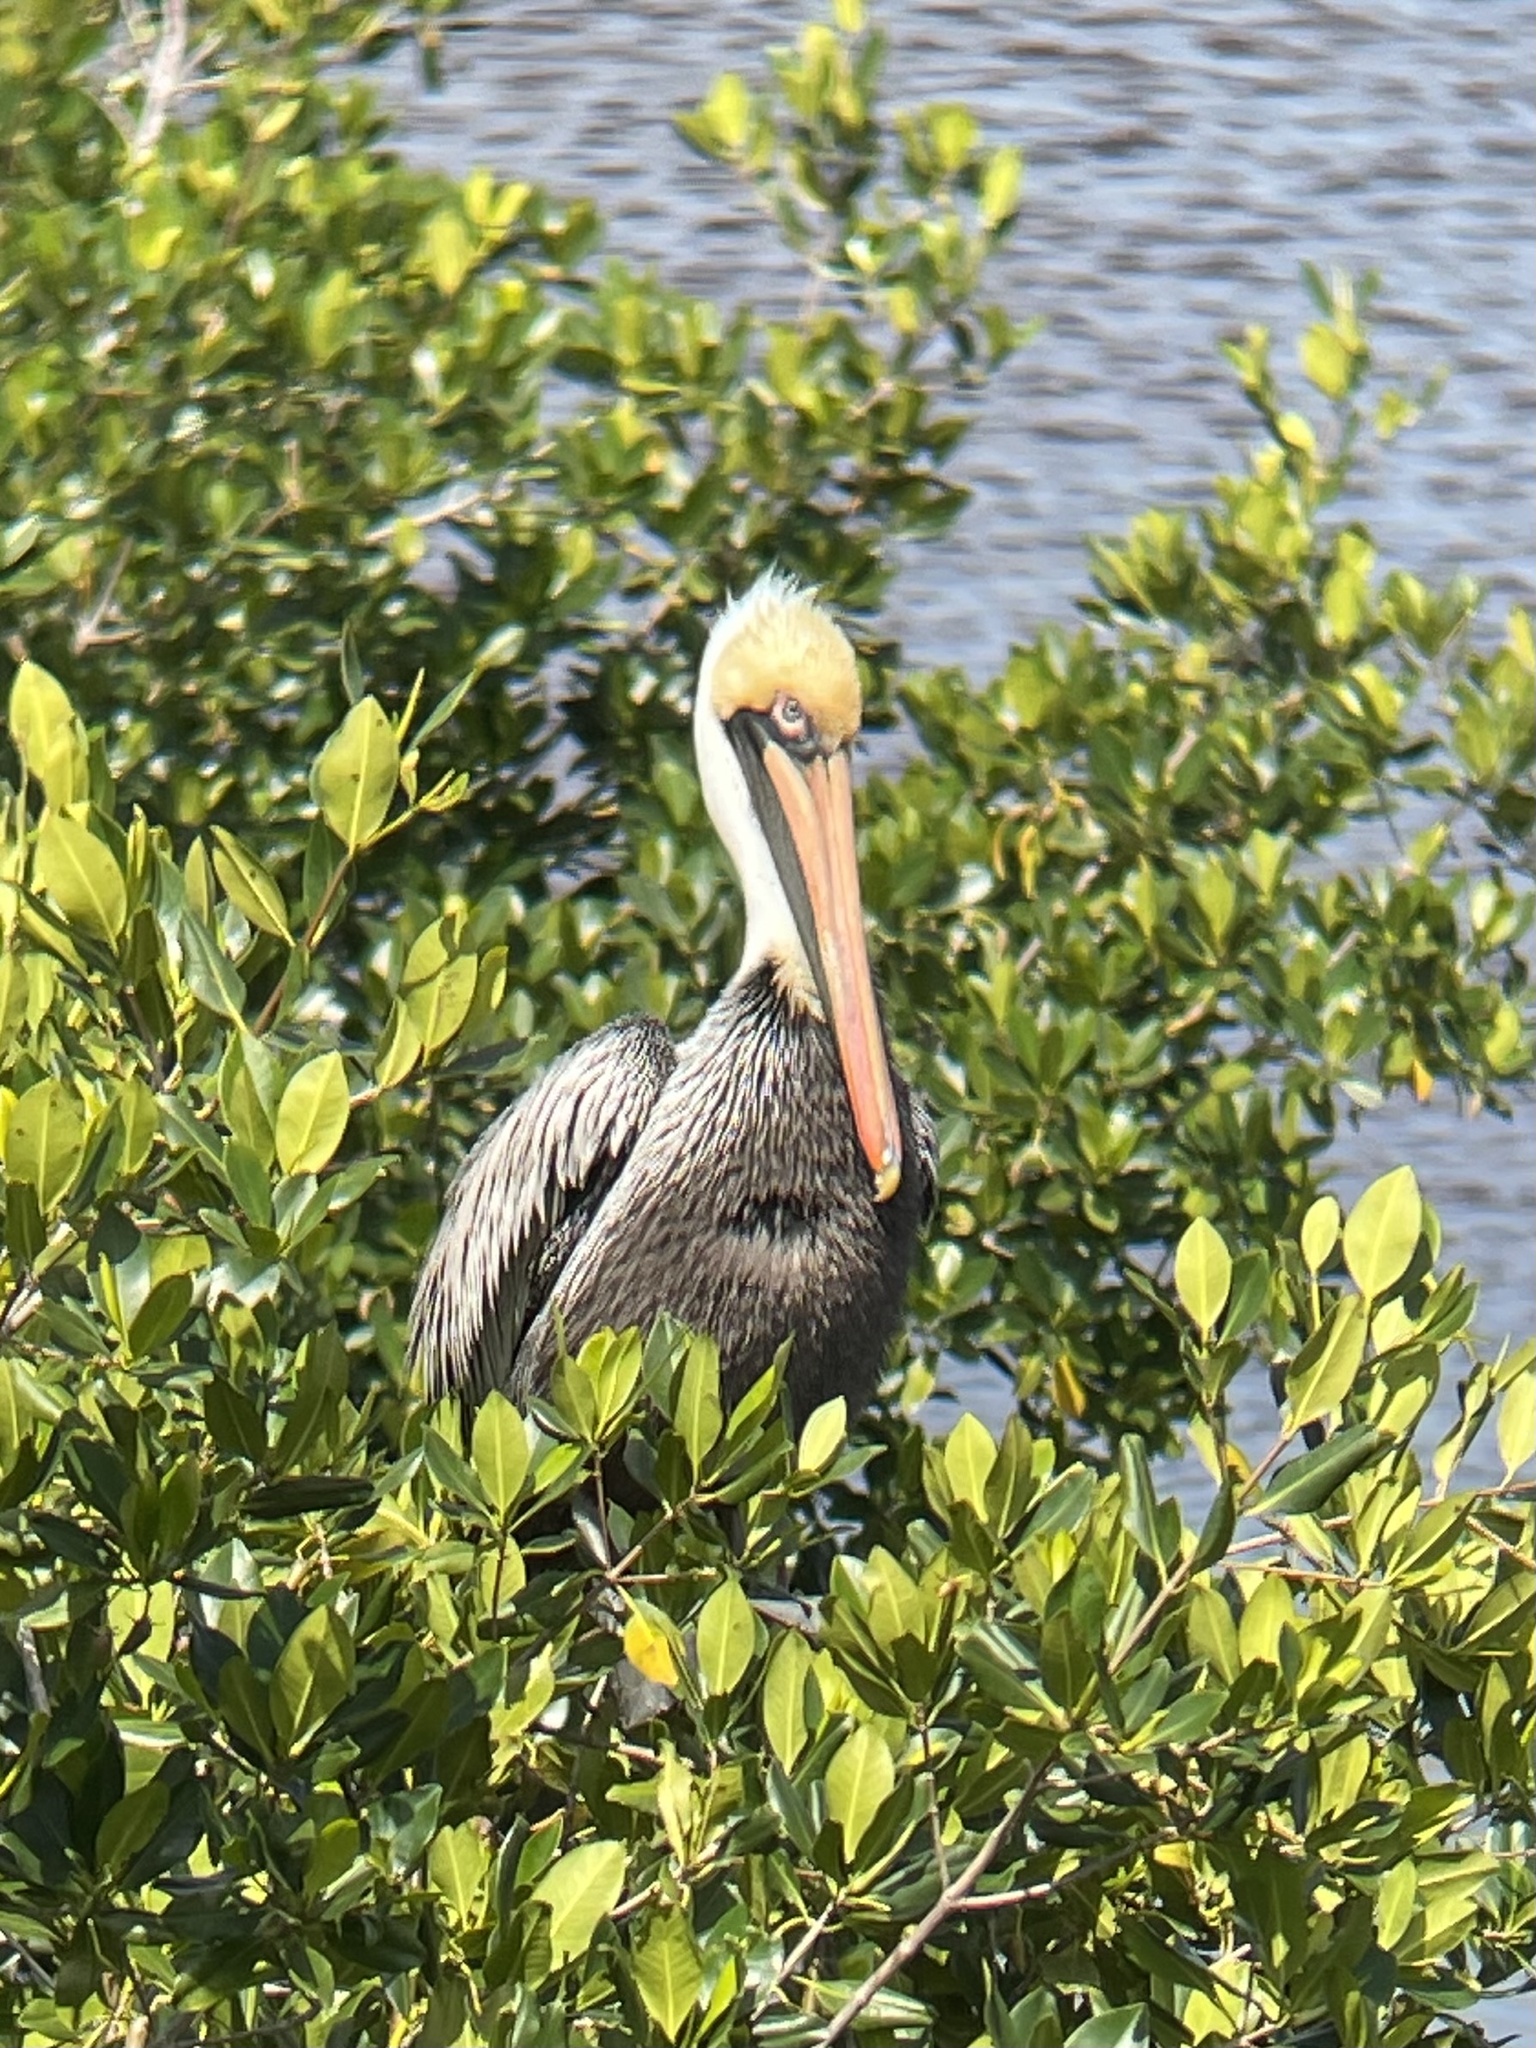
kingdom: Animalia
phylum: Chordata
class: Aves
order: Pelecaniformes
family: Pelecanidae
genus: Pelecanus
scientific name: Pelecanus occidentalis
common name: Brown pelican
